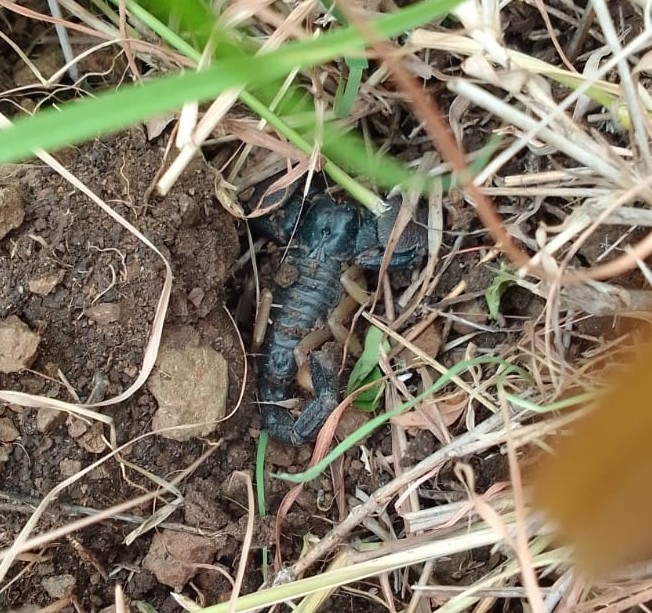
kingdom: Animalia
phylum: Arthropoda
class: Arachnida
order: Scorpiones
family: Scorpionidae
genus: Chersonesometrus
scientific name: Chersonesometrus fulvipes
